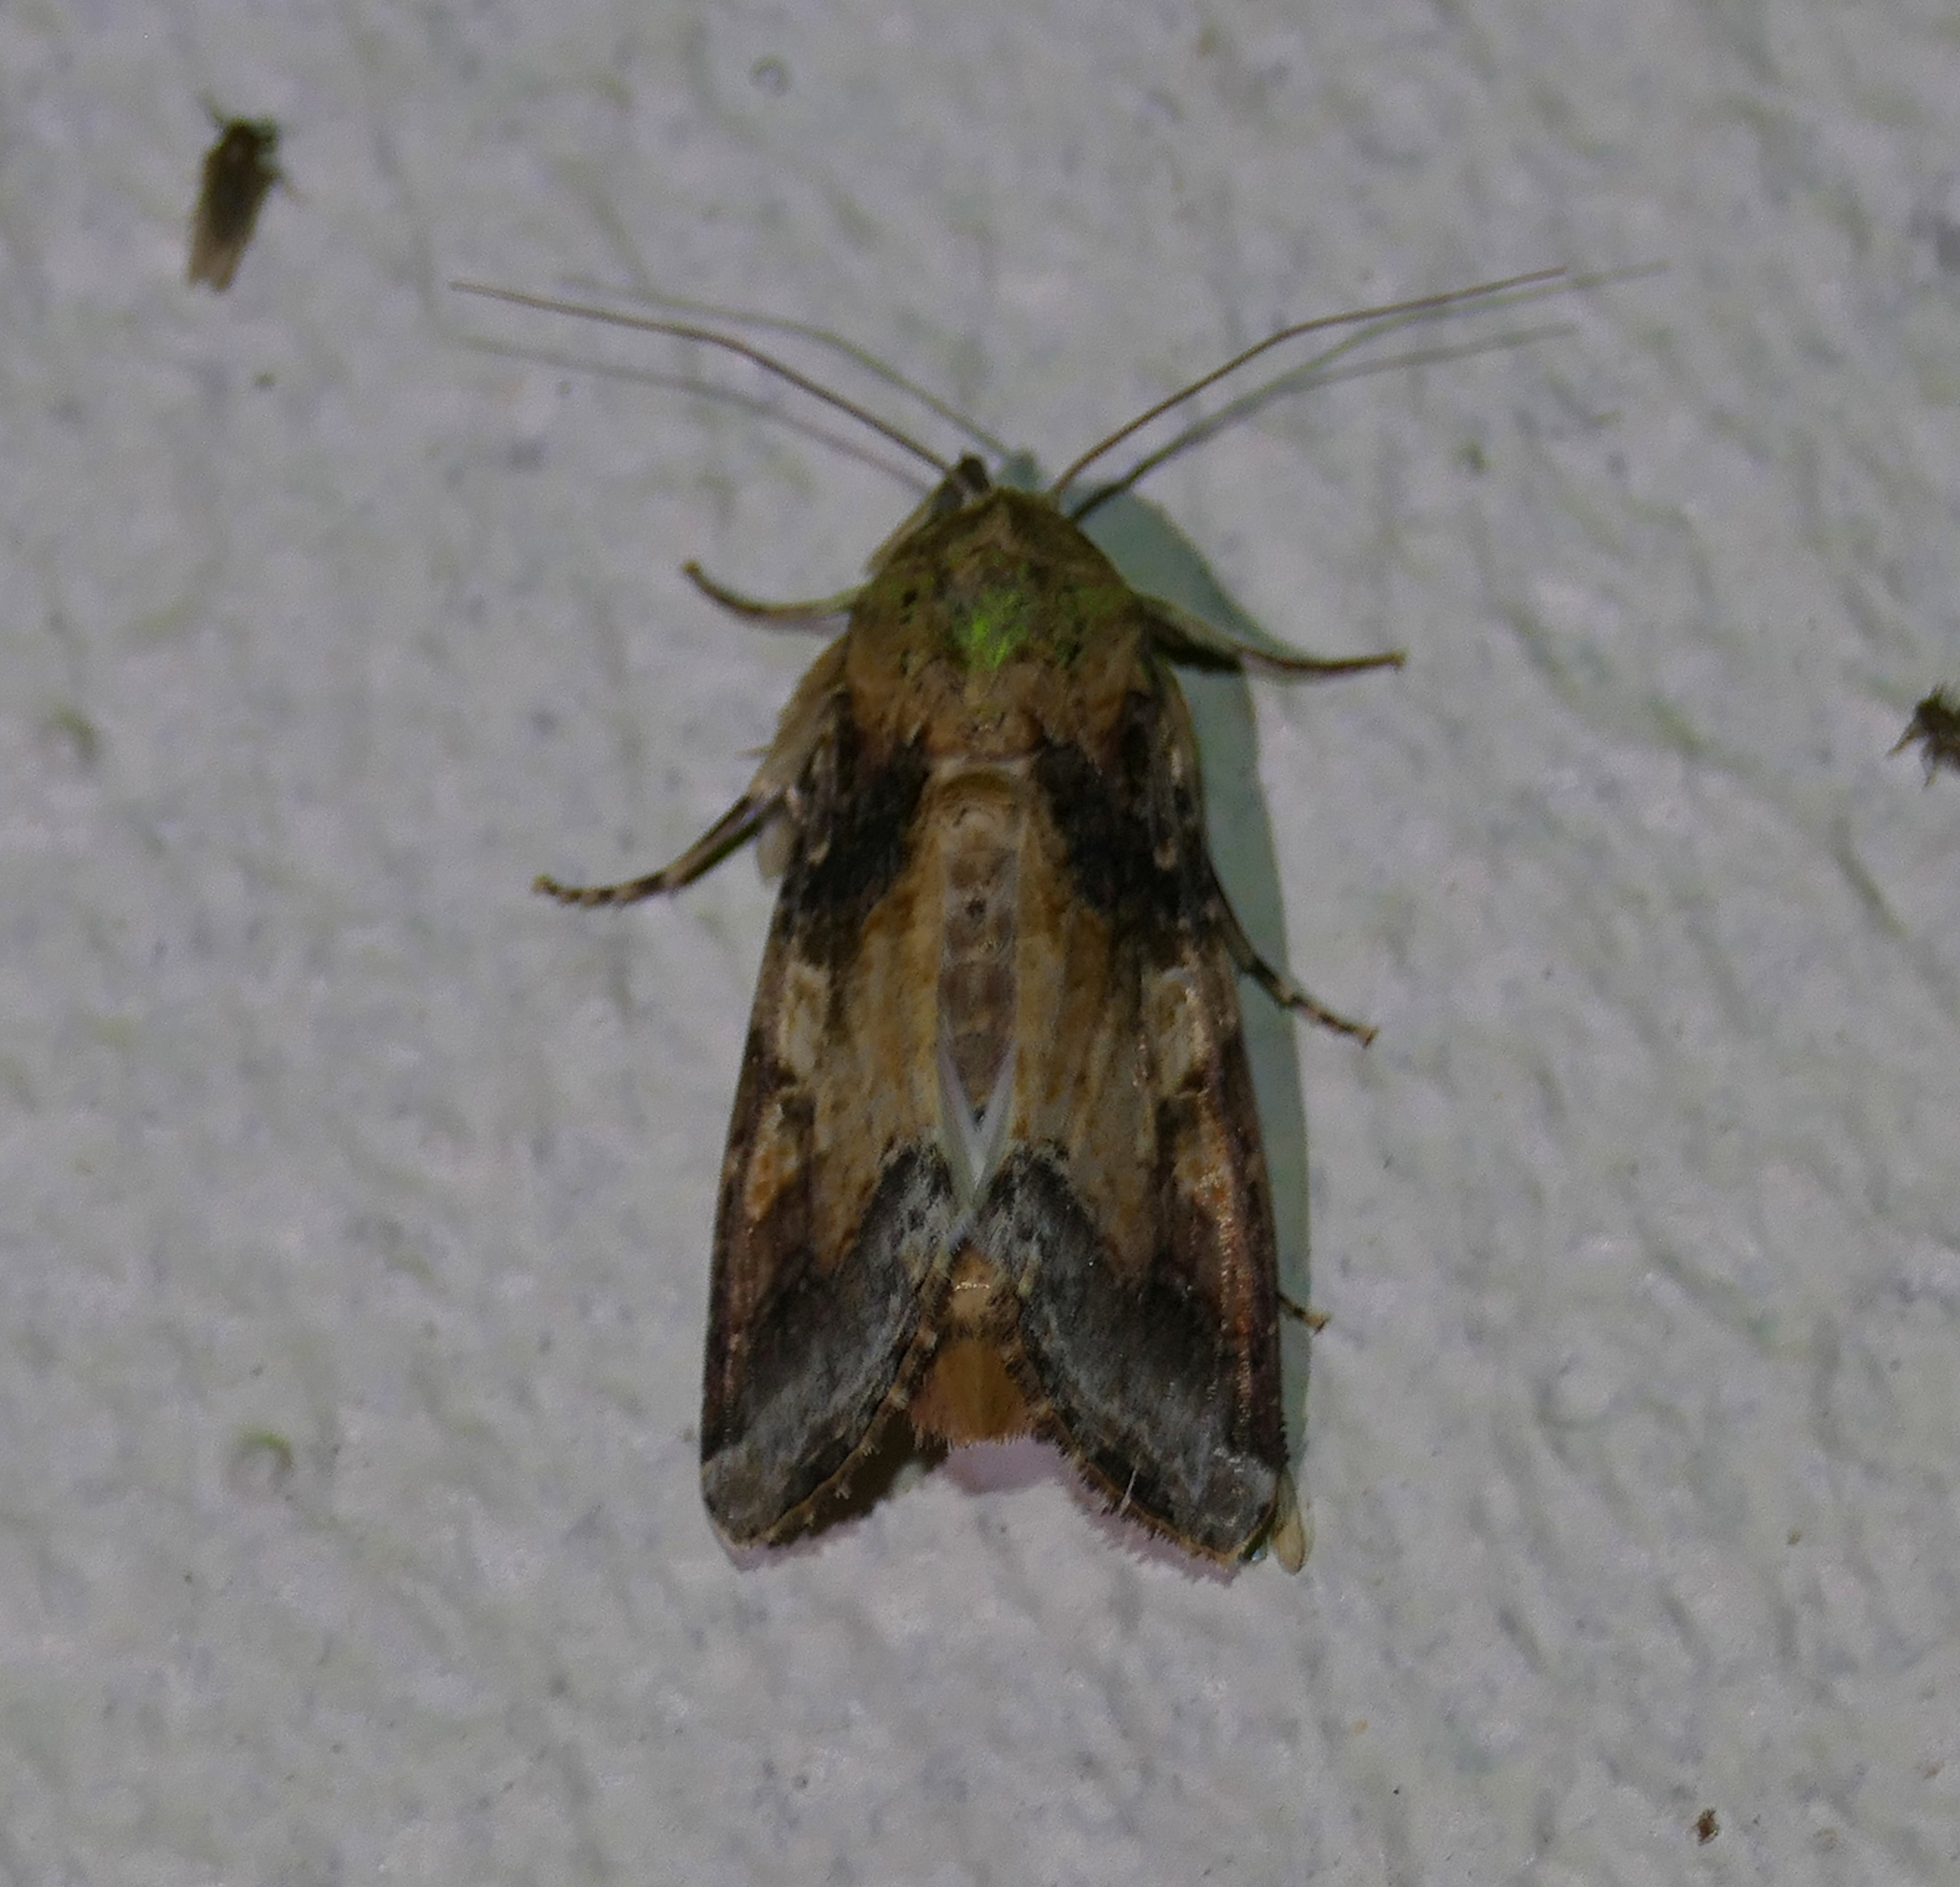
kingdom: Animalia
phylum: Arthropoda
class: Insecta
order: Lepidoptera
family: Noctuidae
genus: Spodoptera
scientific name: Spodoptera latifascia
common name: Velvet armyworm moth
